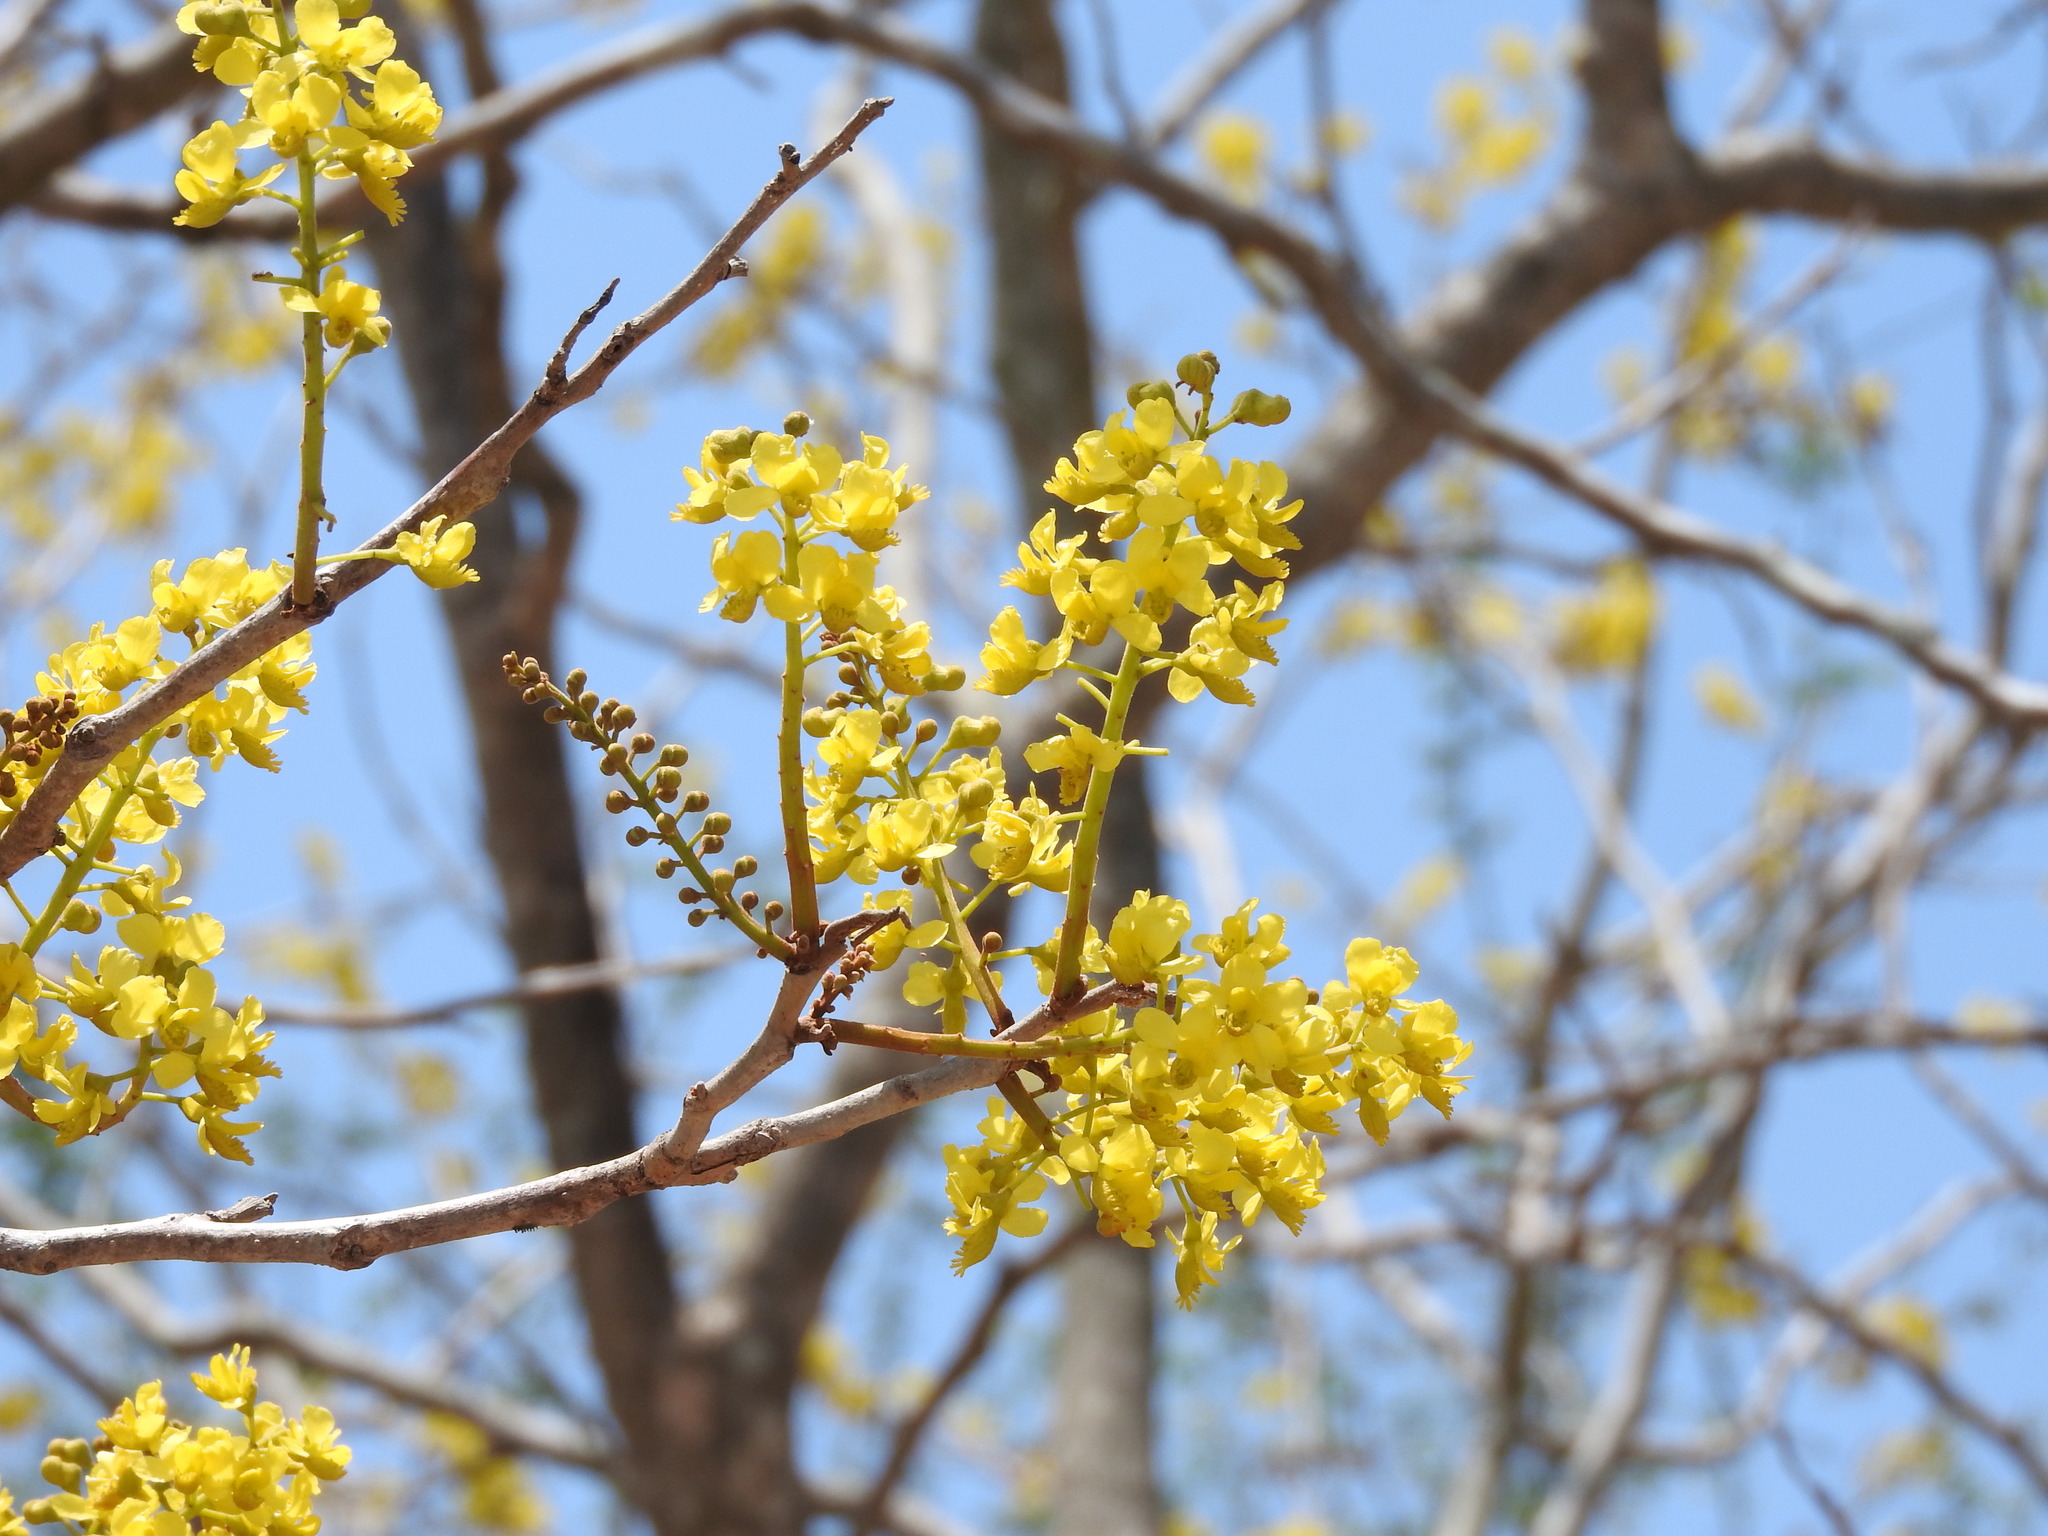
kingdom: Plantae
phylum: Tracheophyta
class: Magnoliopsida
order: Fabales
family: Fabaceae
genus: Coulteria
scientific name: Coulteria platyloba
